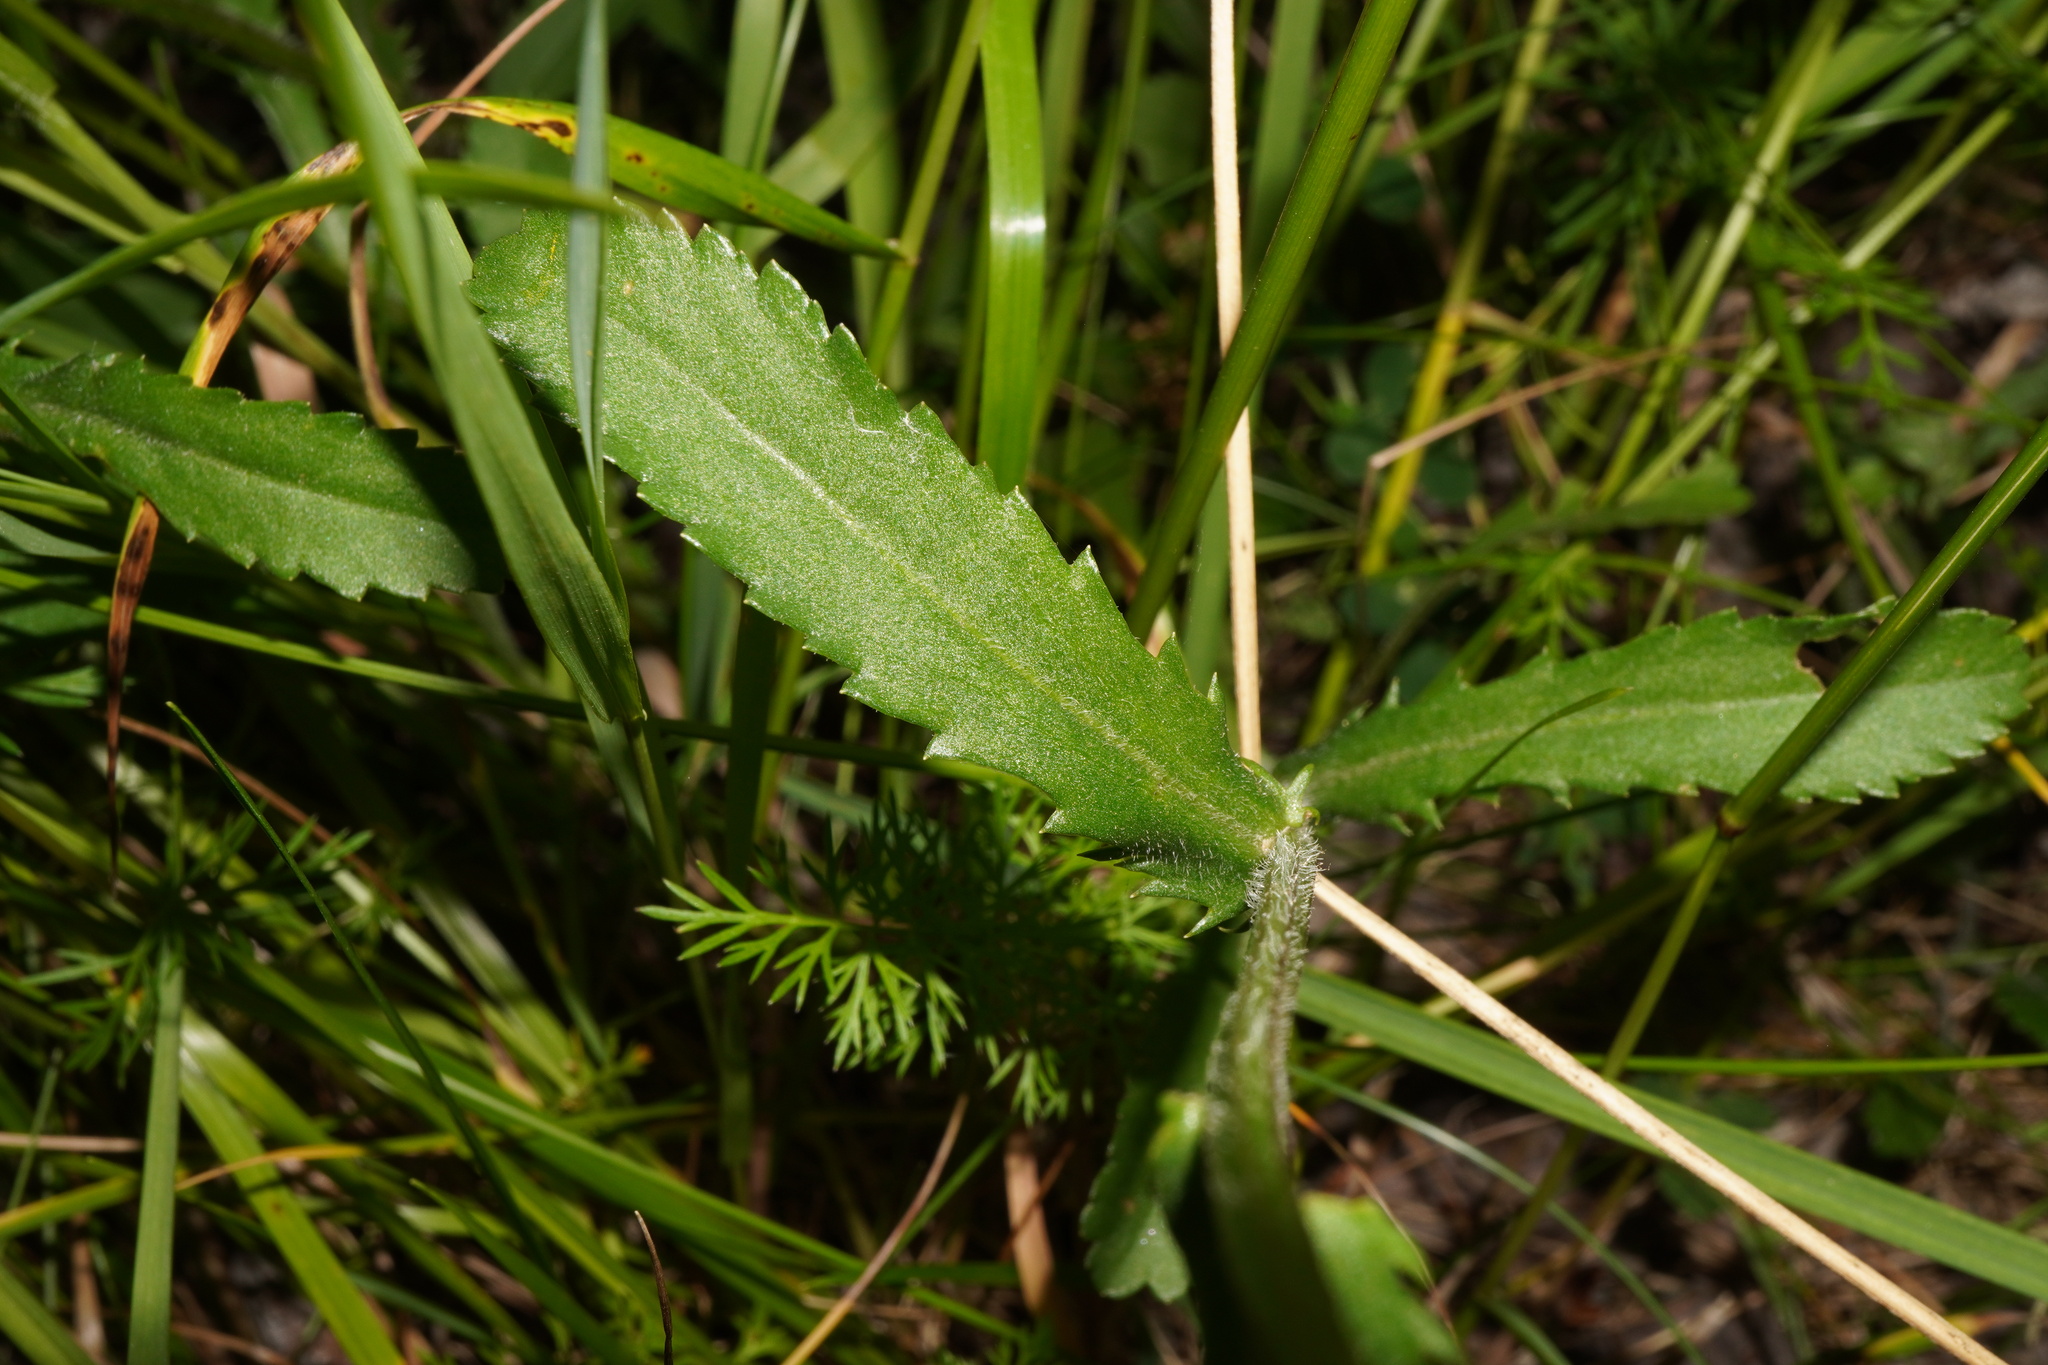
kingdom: Plantae
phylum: Tracheophyta
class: Magnoliopsida
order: Asterales
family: Asteraceae
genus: Leucanthemum
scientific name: Leucanthemum ircutianum
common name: Daisy
